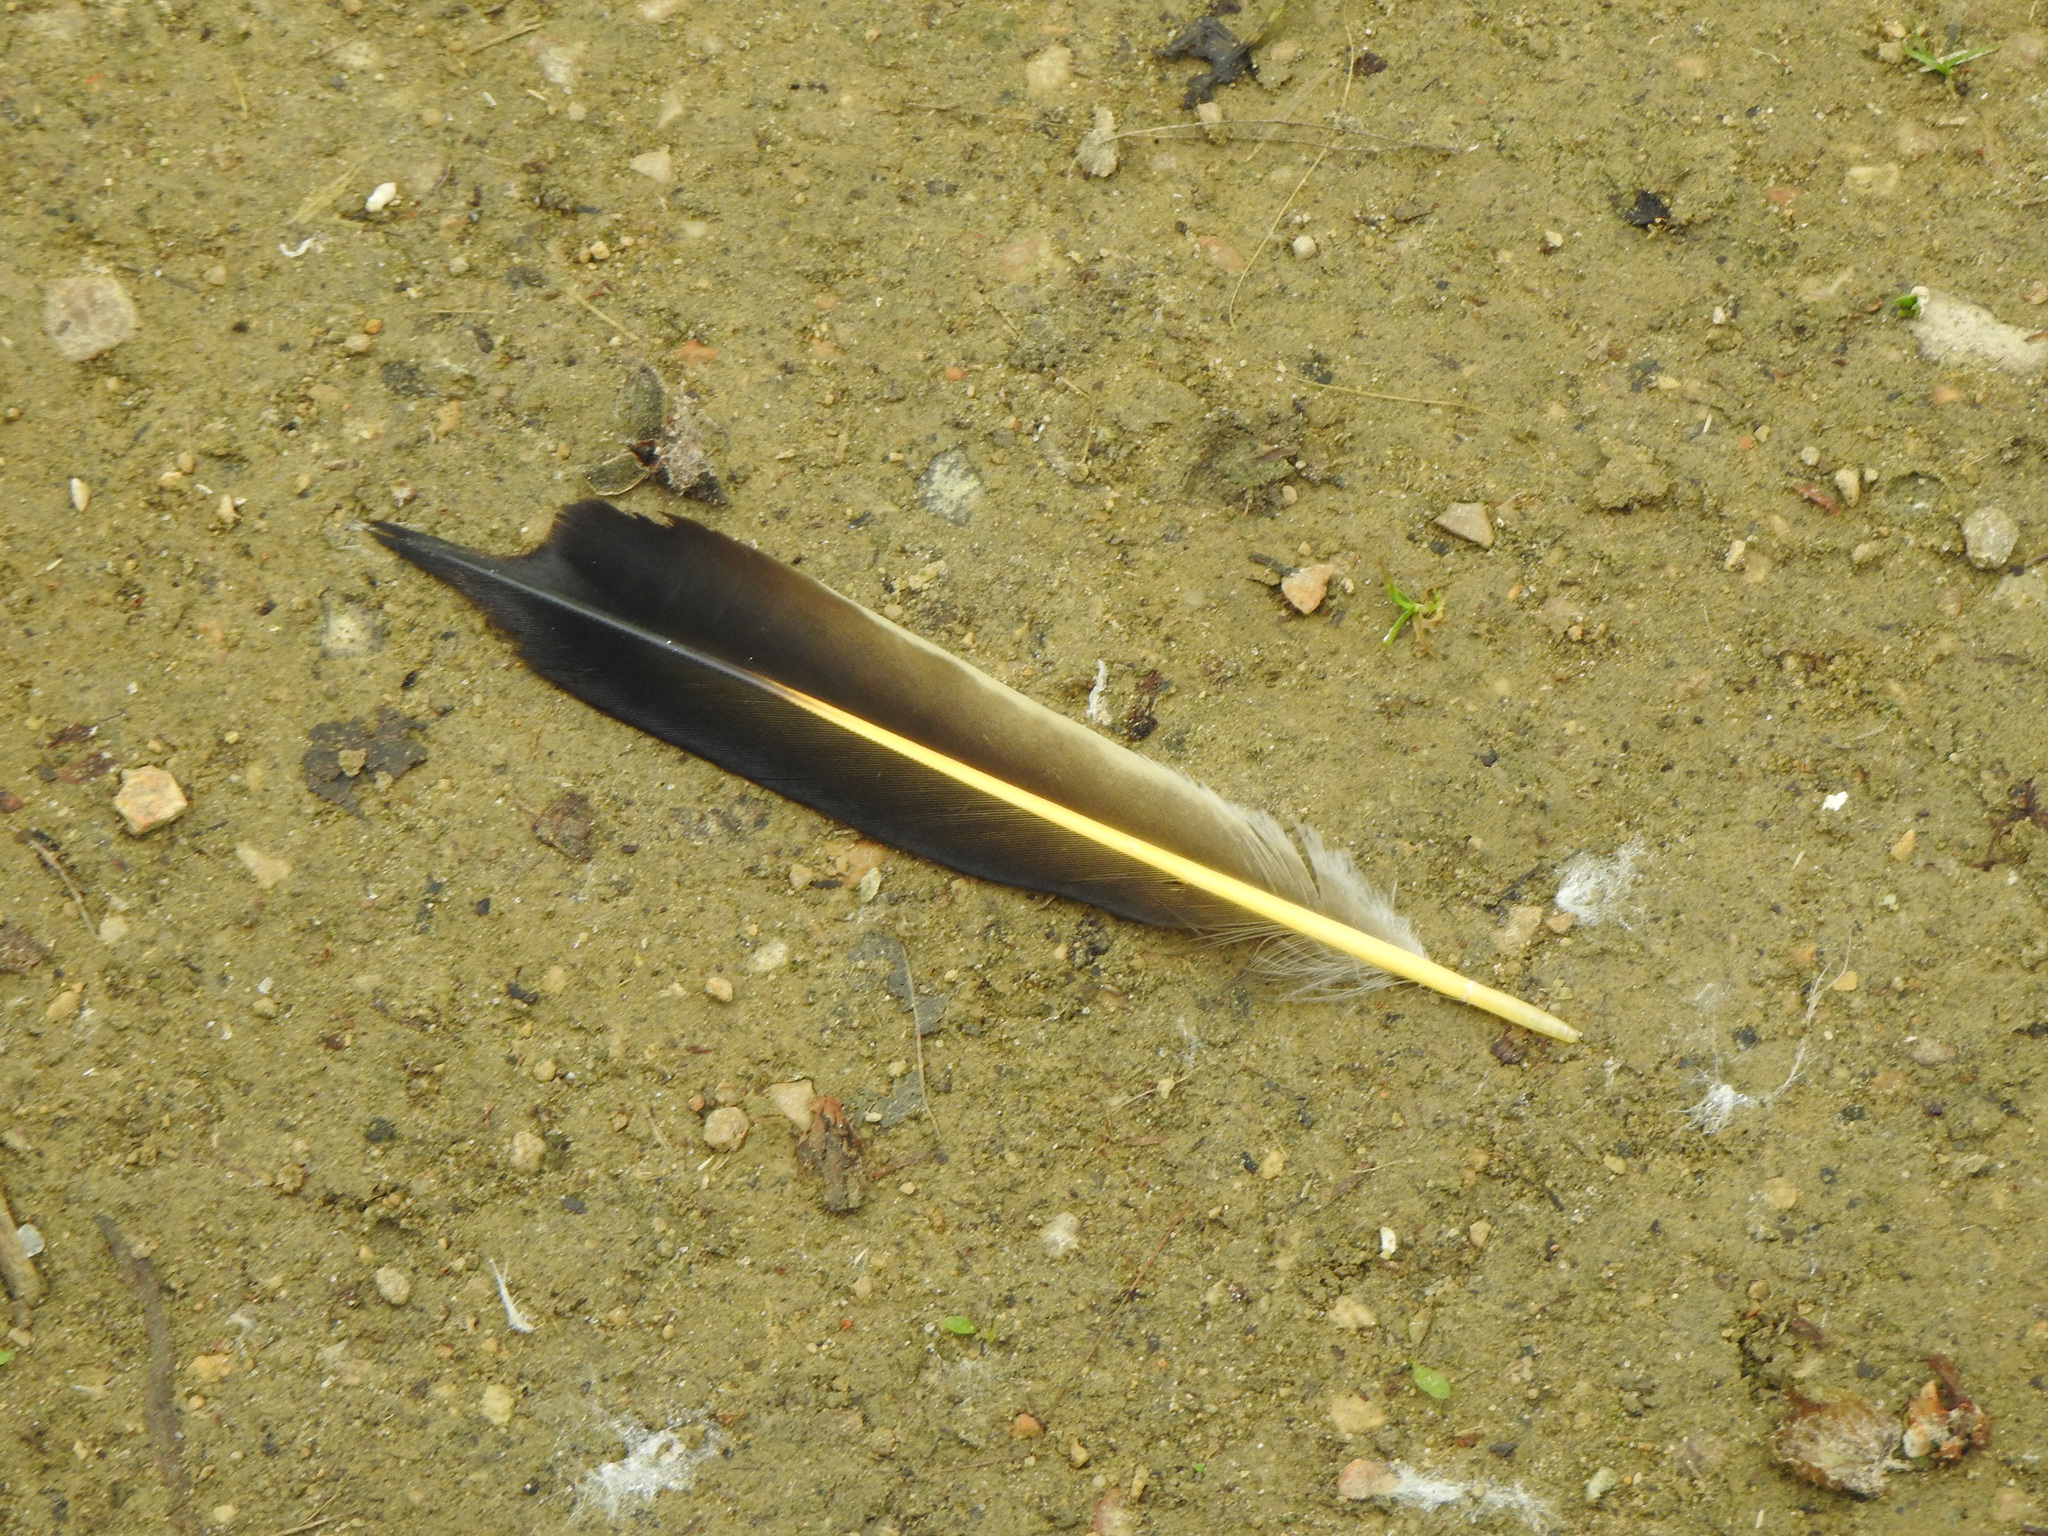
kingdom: Animalia
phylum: Chordata
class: Aves
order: Piciformes
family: Picidae
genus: Colaptes
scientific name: Colaptes auratus
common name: Northern flicker
